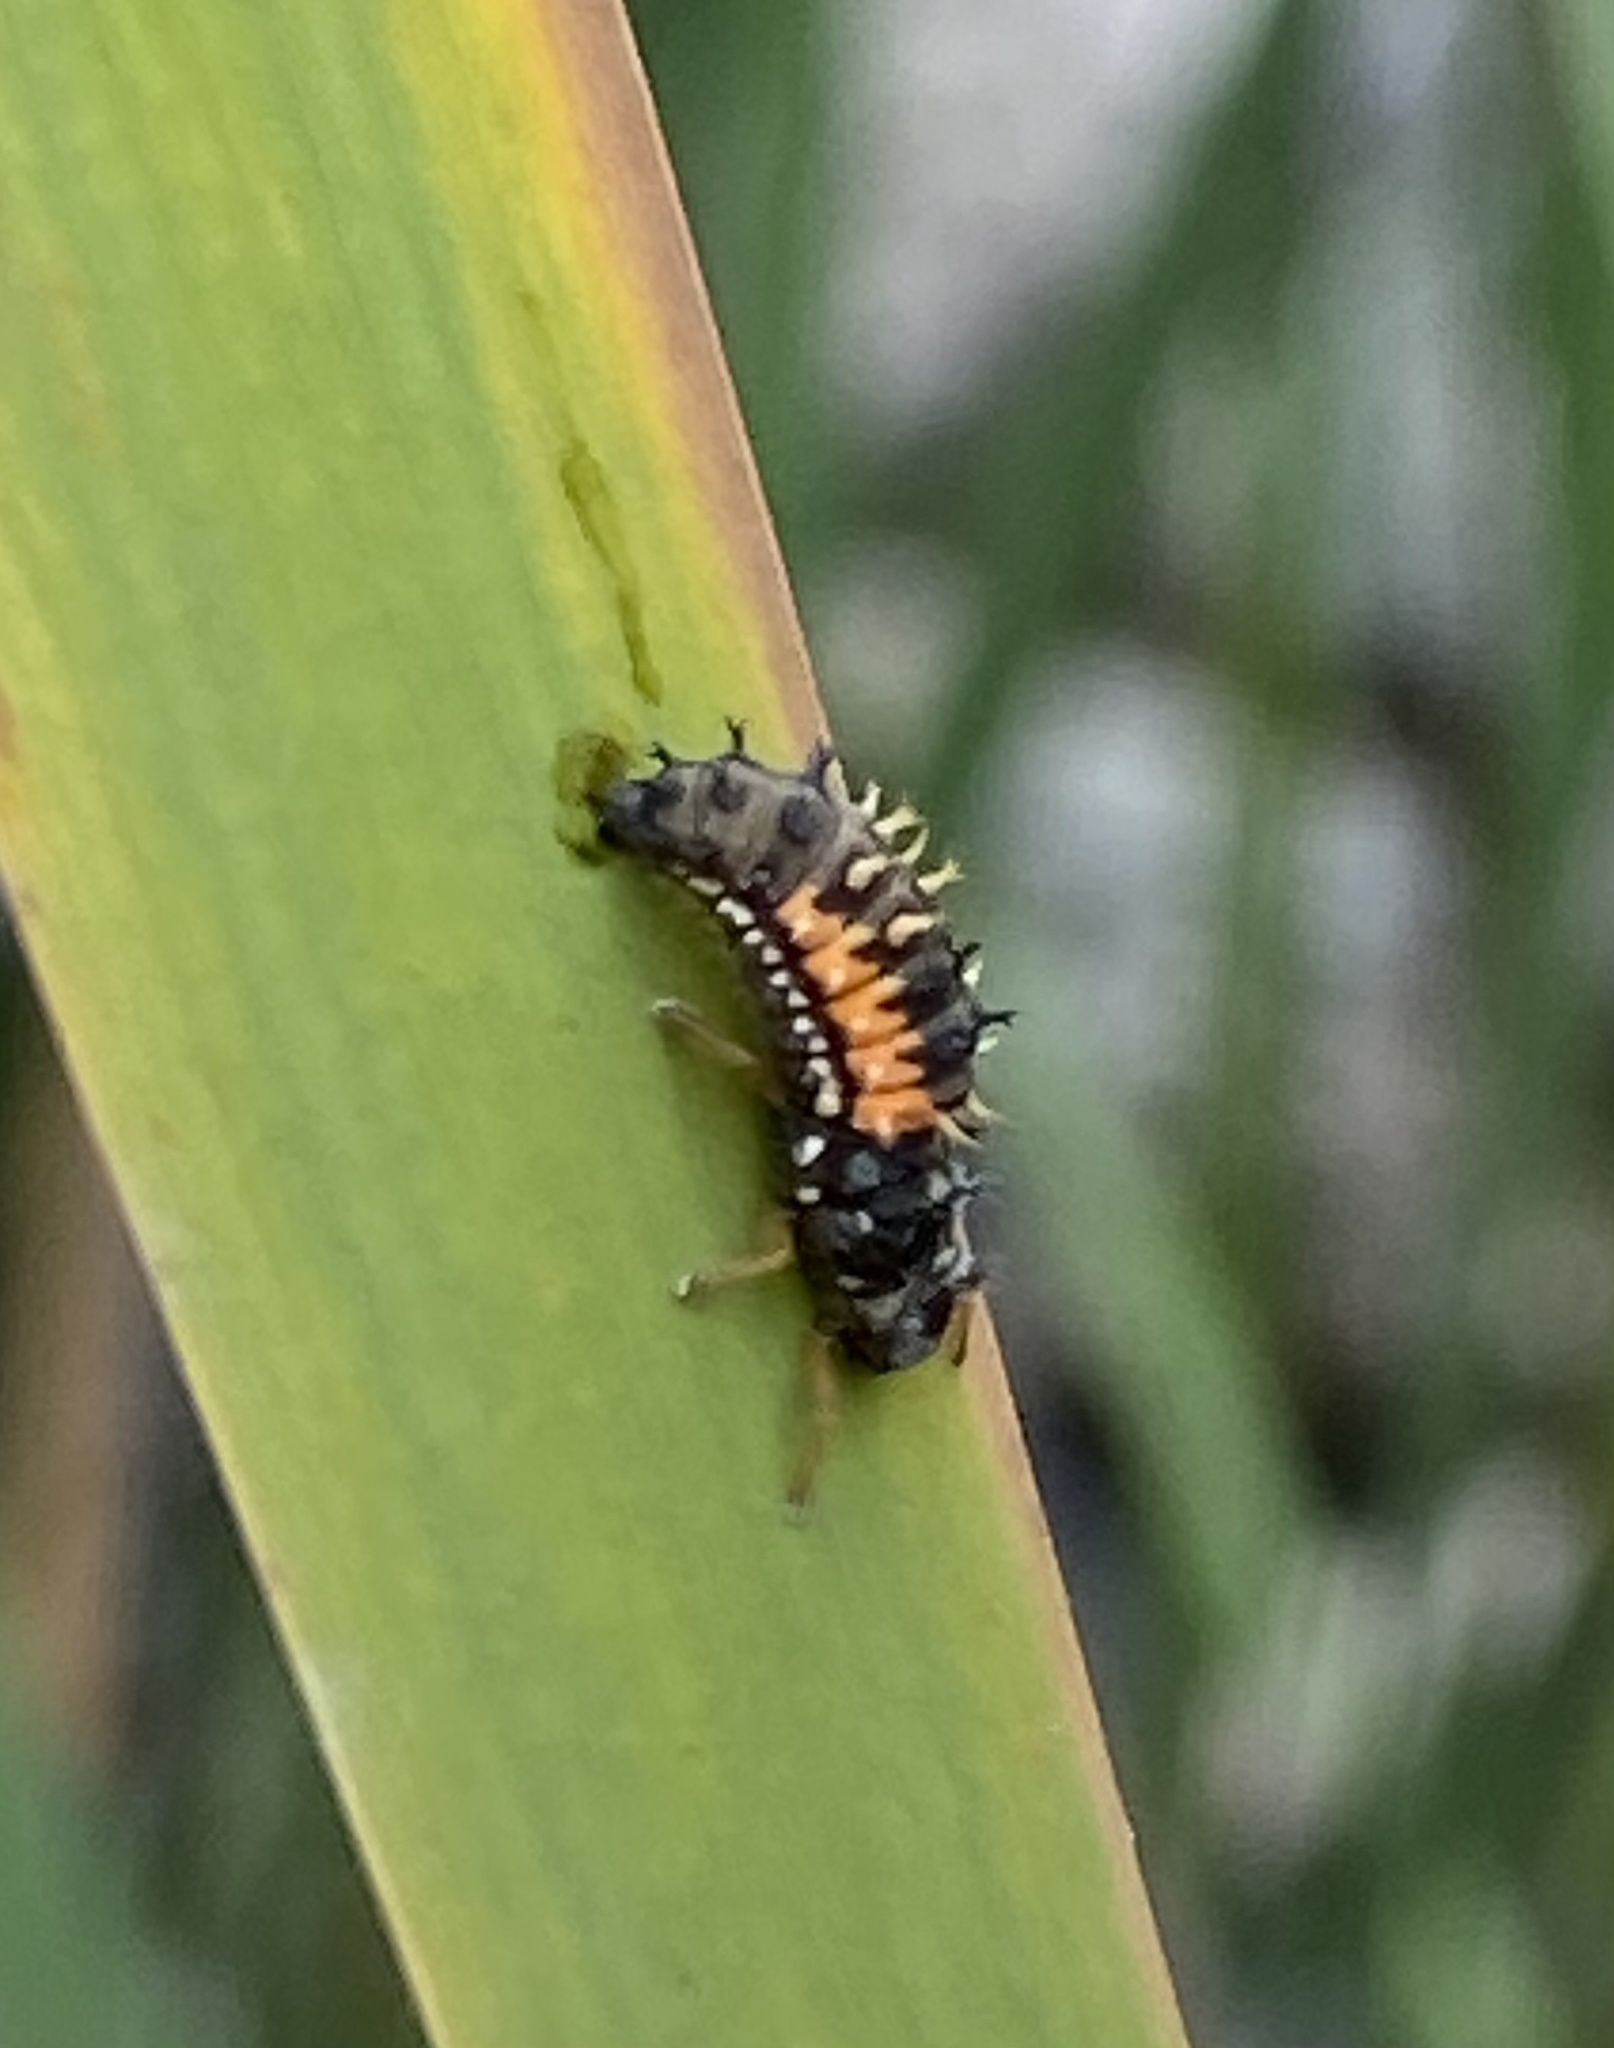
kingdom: Animalia
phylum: Arthropoda
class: Insecta
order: Coleoptera
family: Coccinellidae
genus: Harmonia
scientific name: Harmonia axyridis
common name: Harlequin ladybird
